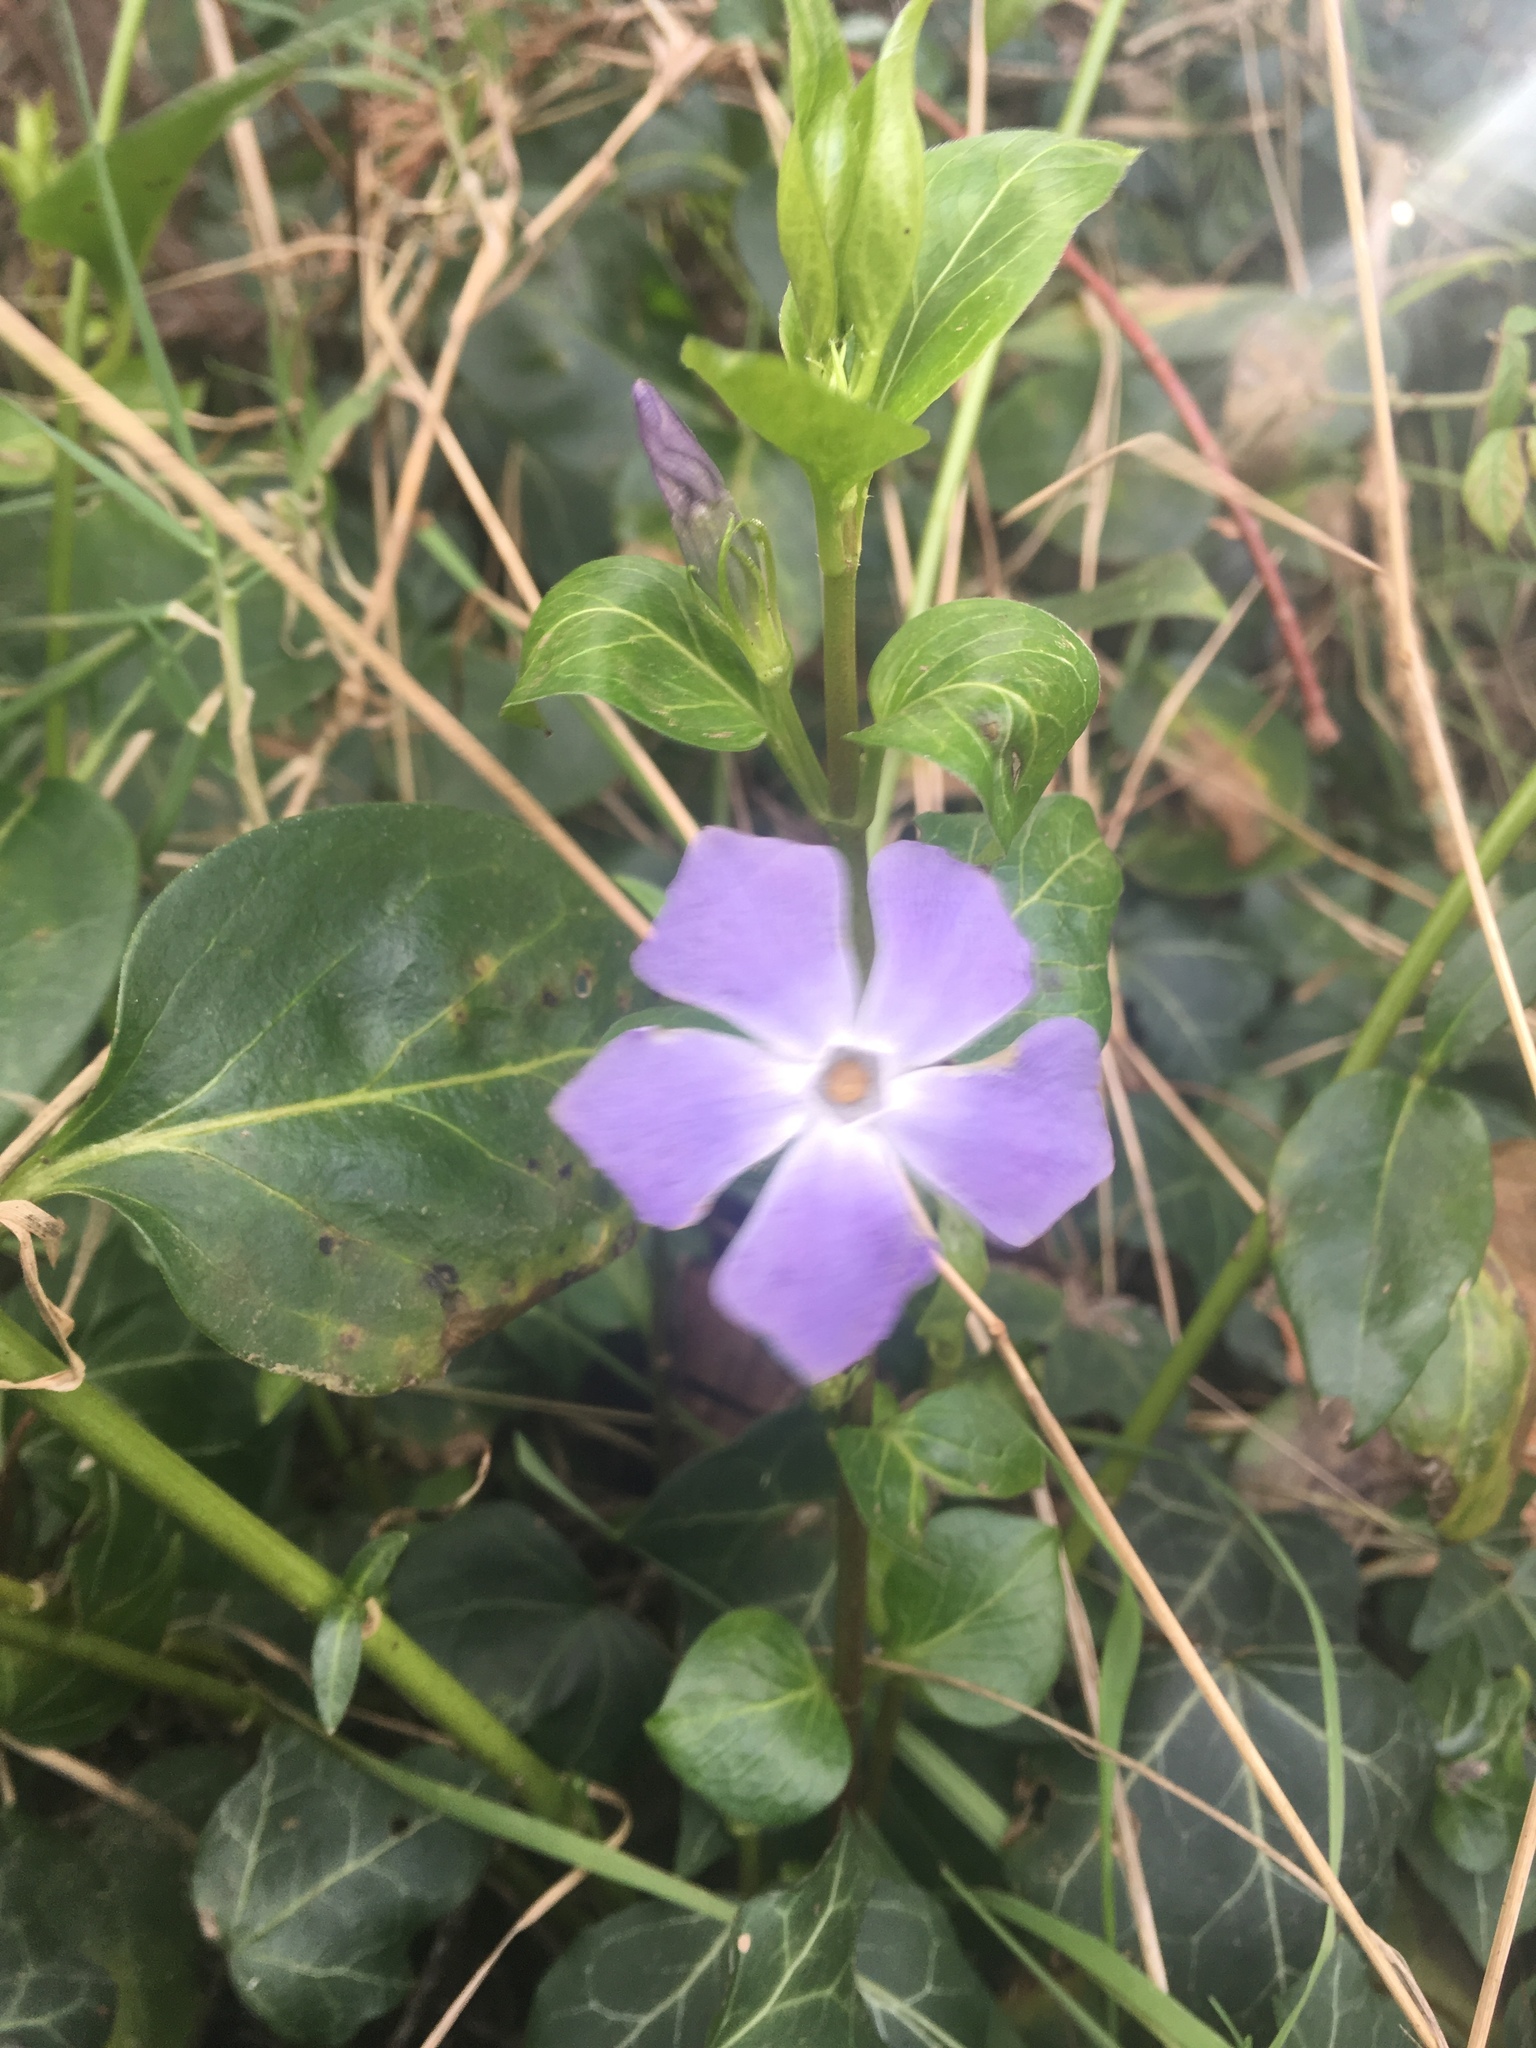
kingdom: Plantae
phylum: Tracheophyta
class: Magnoliopsida
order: Gentianales
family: Apocynaceae
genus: Vinca
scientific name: Vinca major
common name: Greater periwinkle
